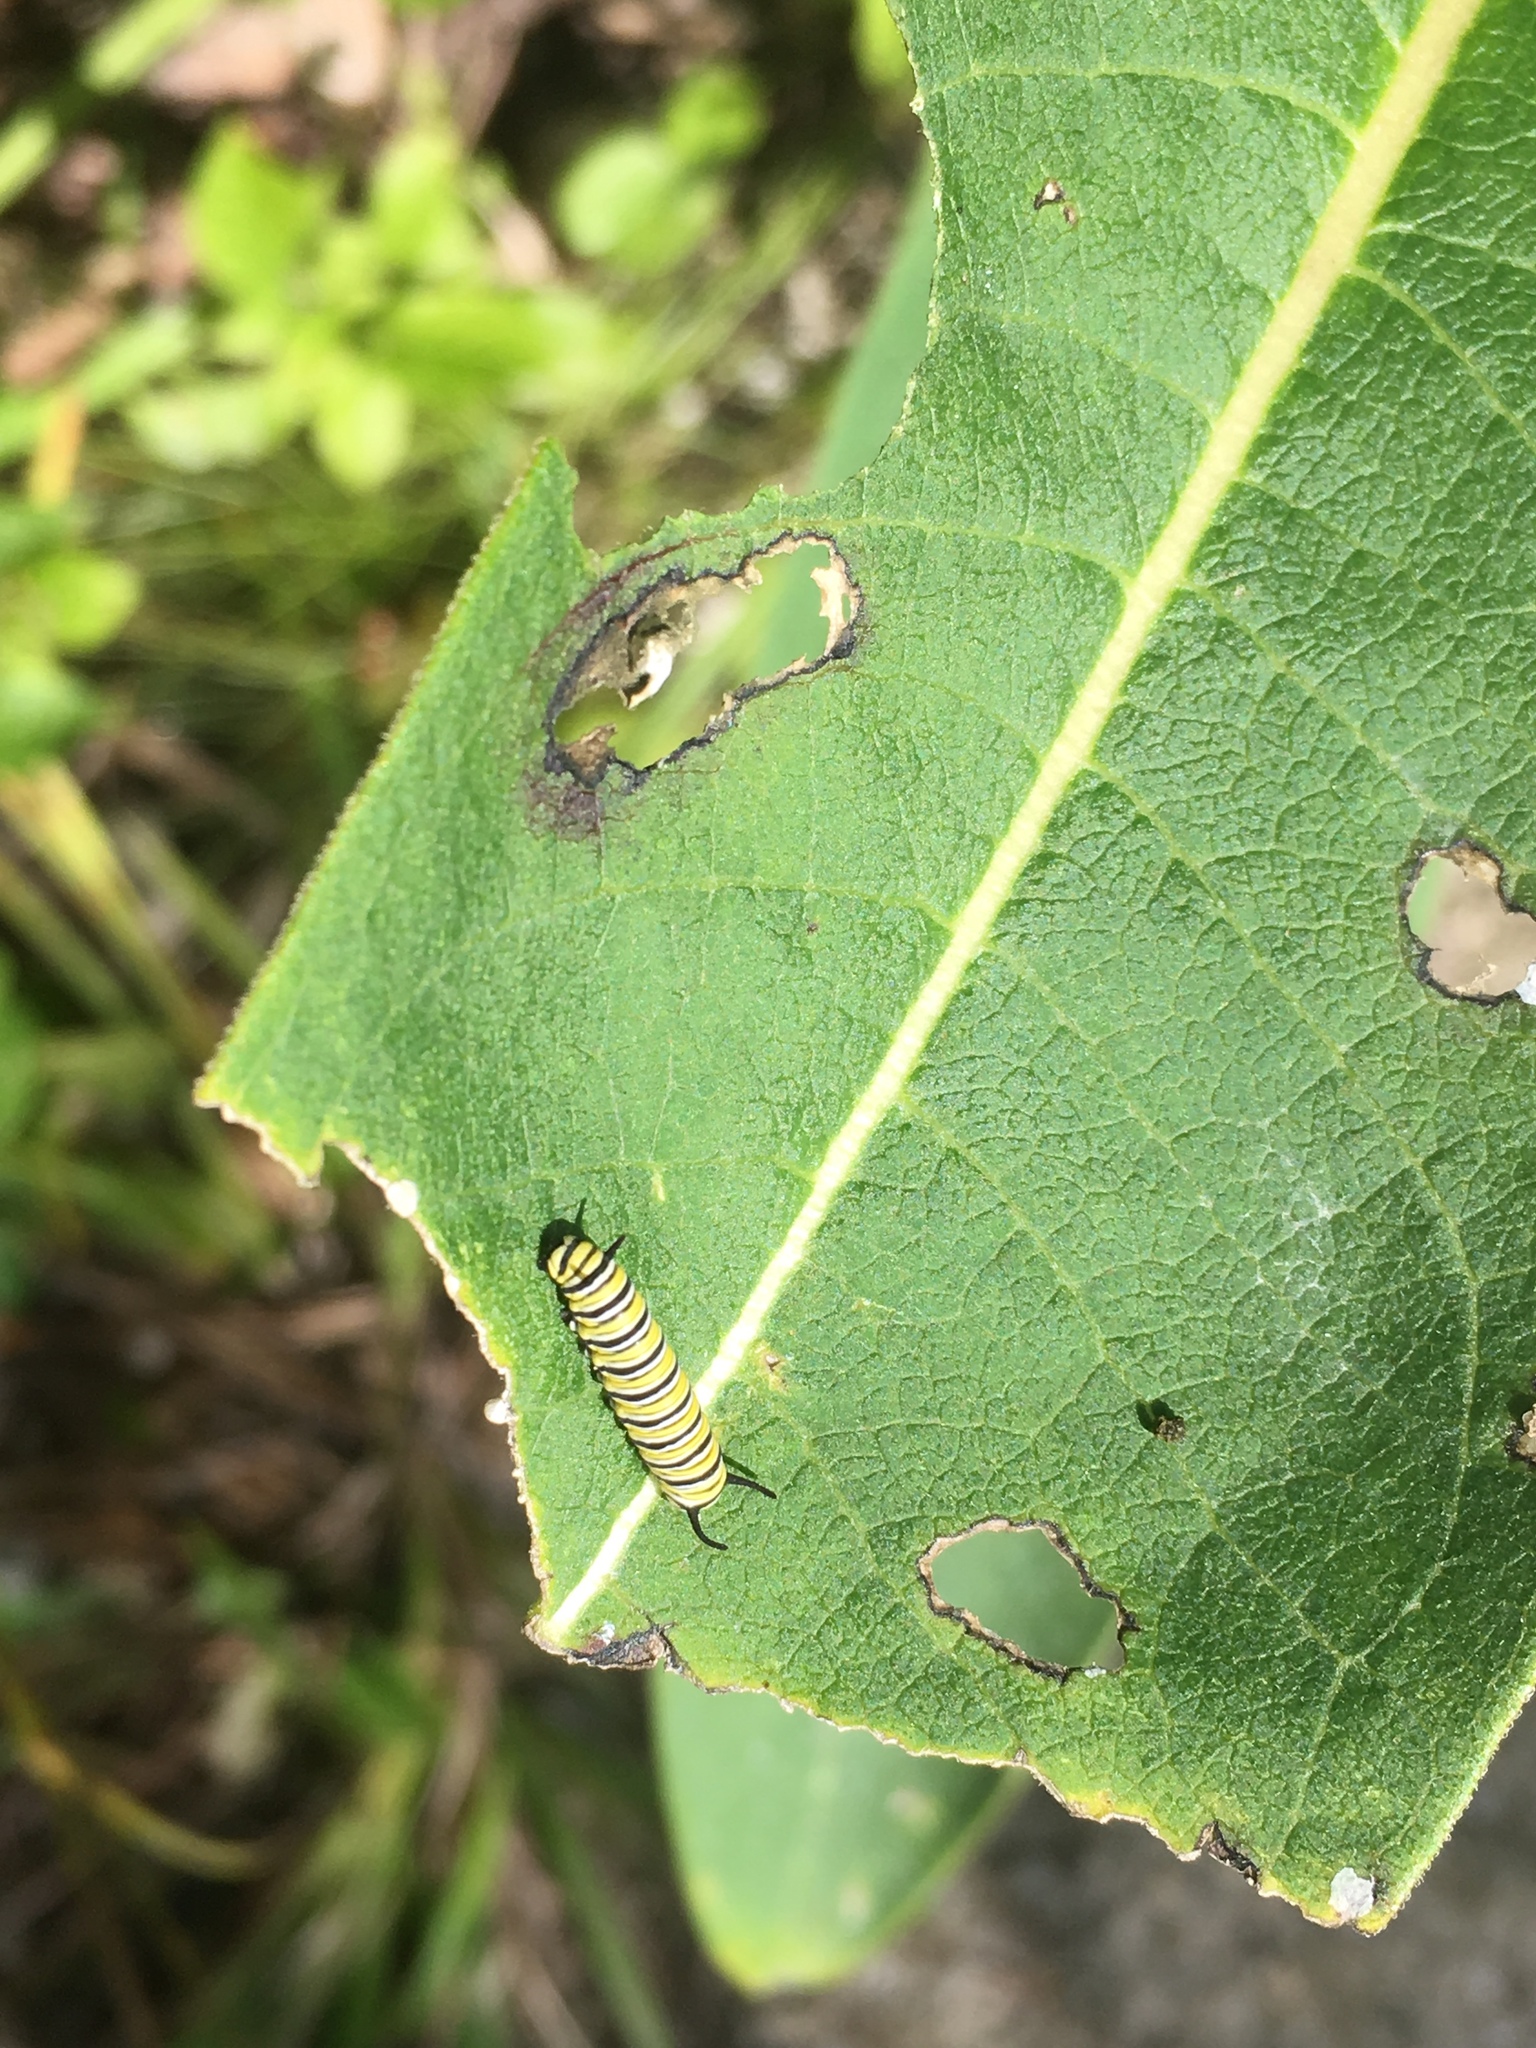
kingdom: Animalia
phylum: Arthropoda
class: Insecta
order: Lepidoptera
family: Nymphalidae
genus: Danaus
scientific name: Danaus plexippus
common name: Monarch
